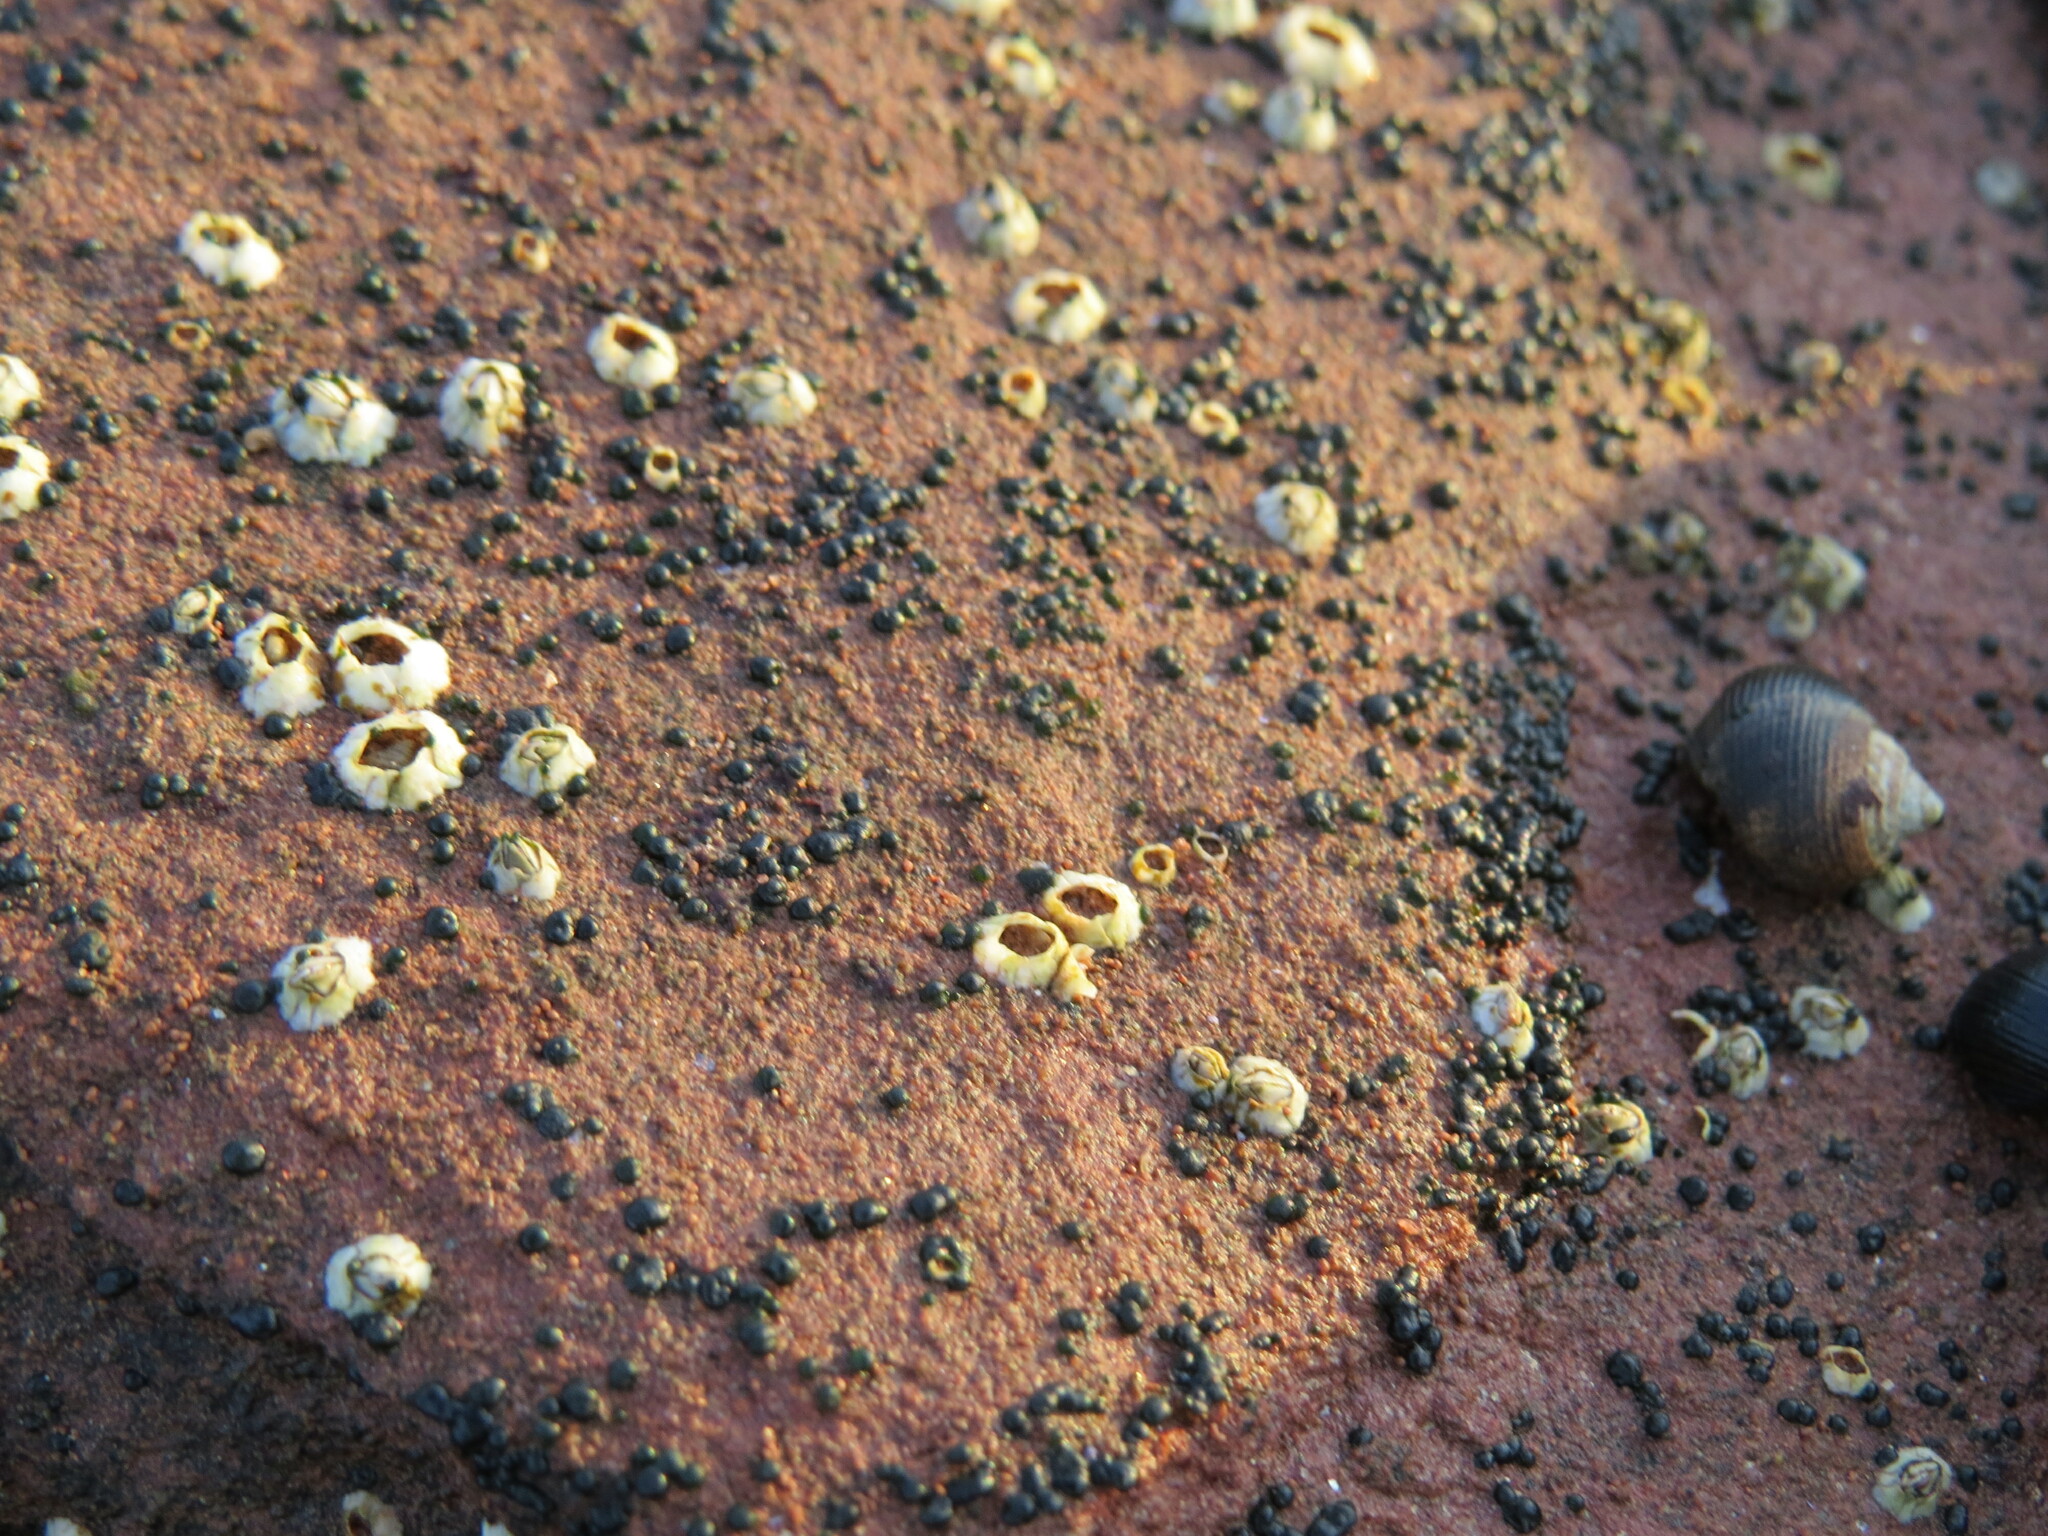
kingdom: Animalia
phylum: Arthropoda
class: Maxillopoda
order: Sessilia
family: Archaeobalanidae
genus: Semibalanus
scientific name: Semibalanus balanoides
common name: Acorn barnacle
